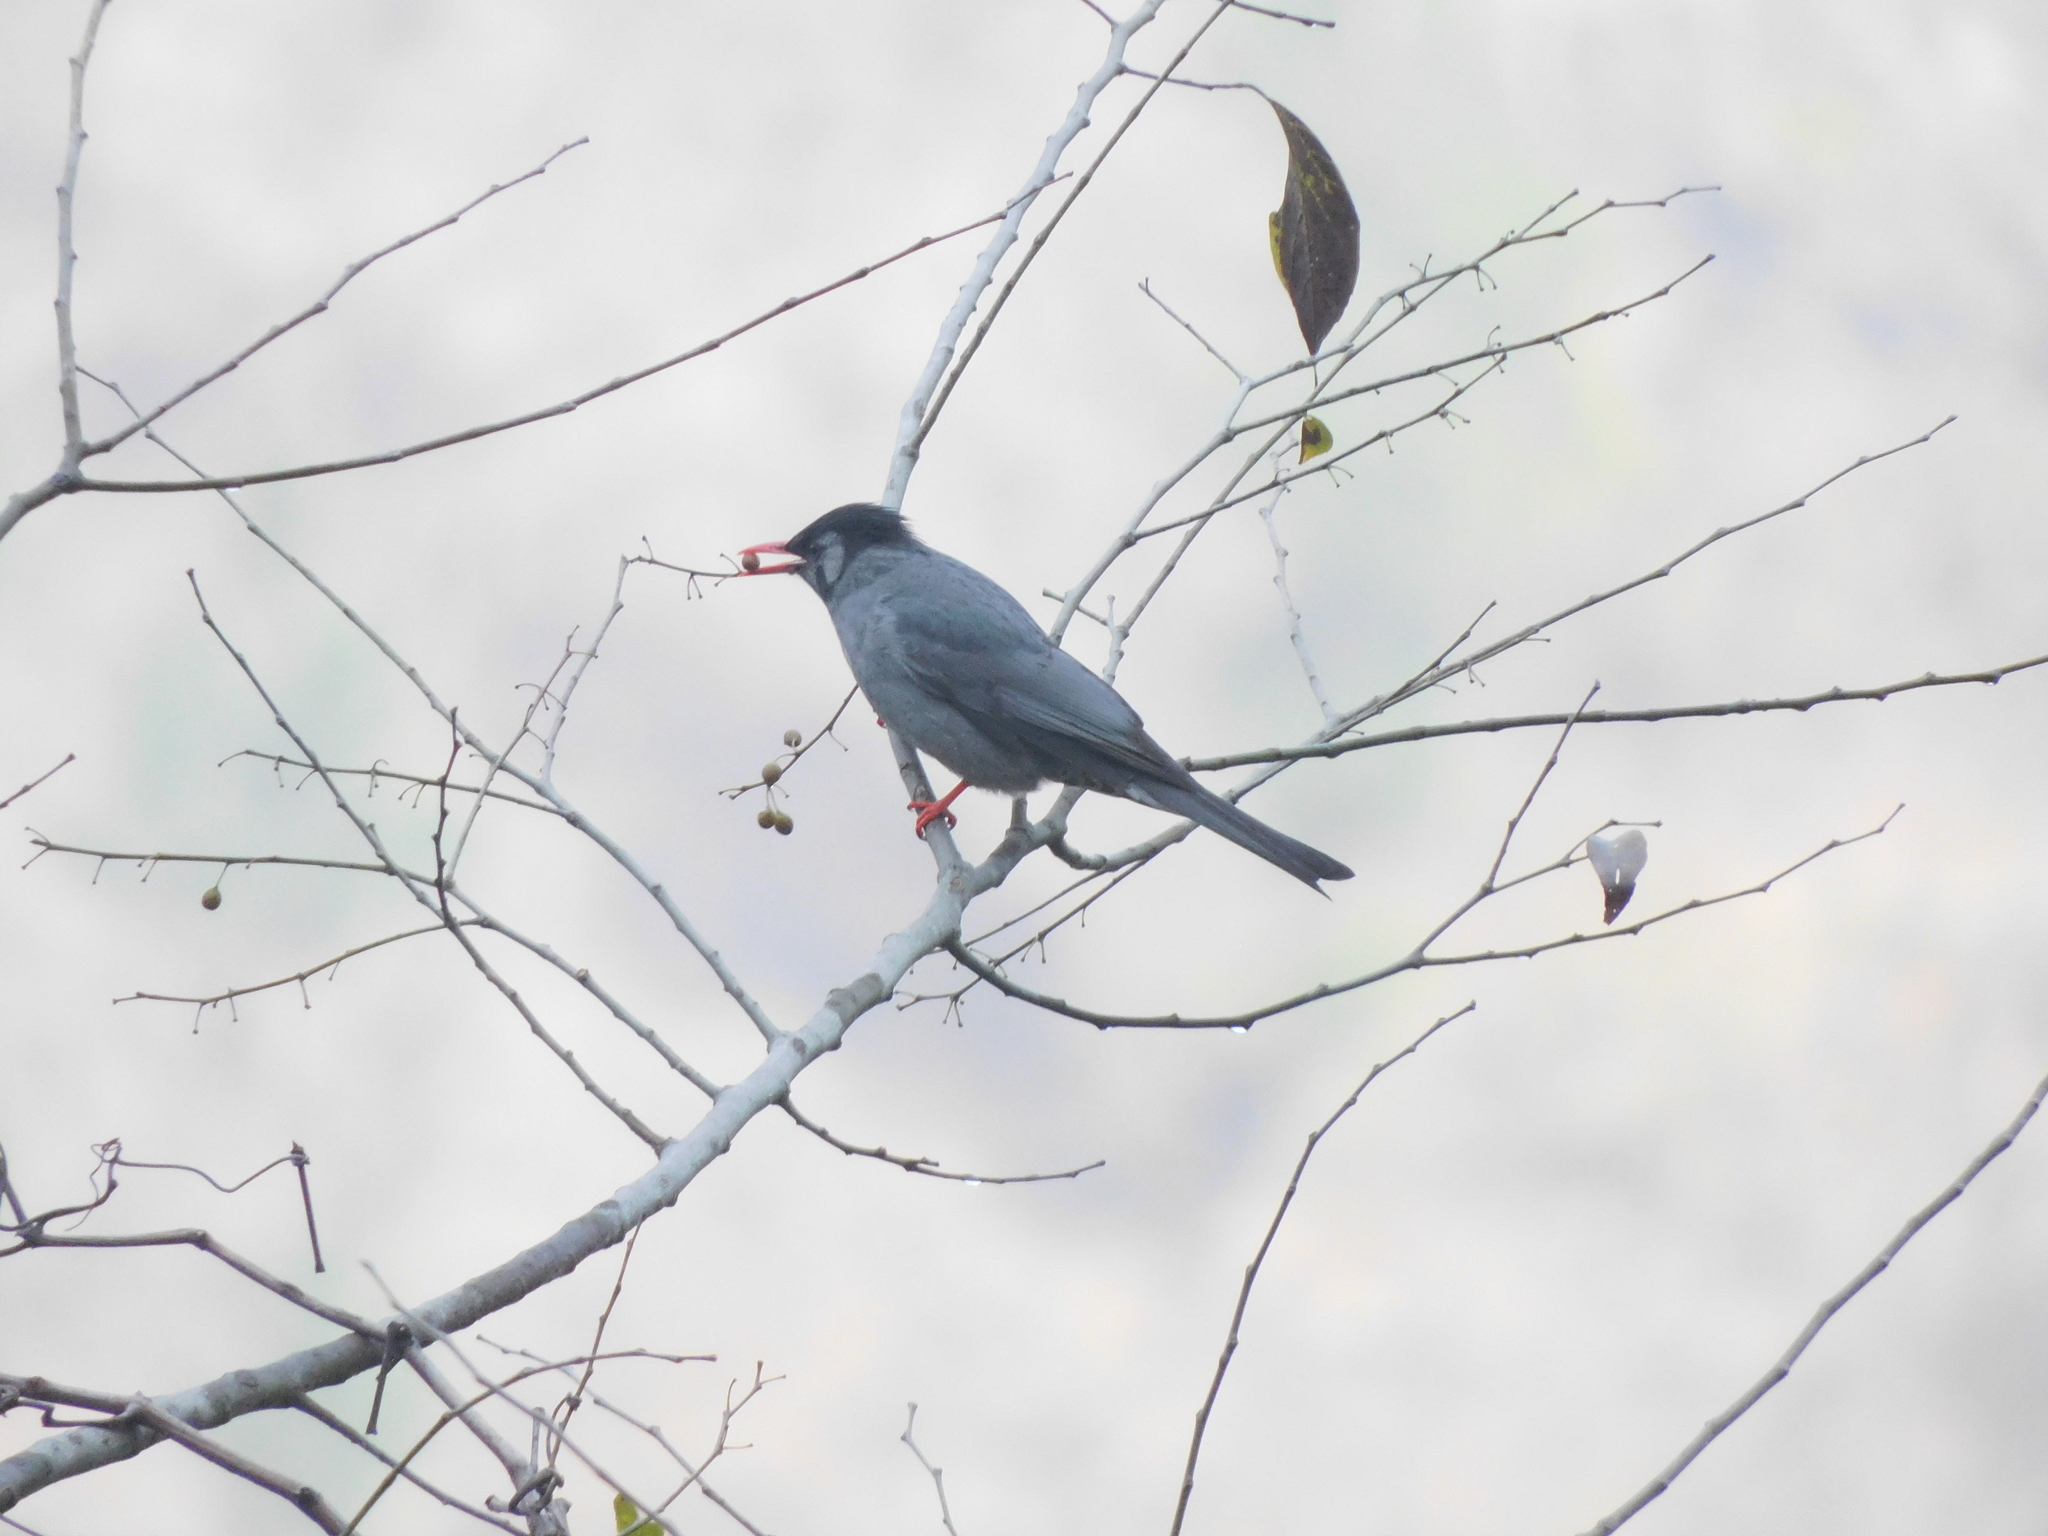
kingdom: Animalia
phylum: Chordata
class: Aves
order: Passeriformes
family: Pycnonotidae
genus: Hypsipetes
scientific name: Hypsipetes leucocephalus
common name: Black bulbul
